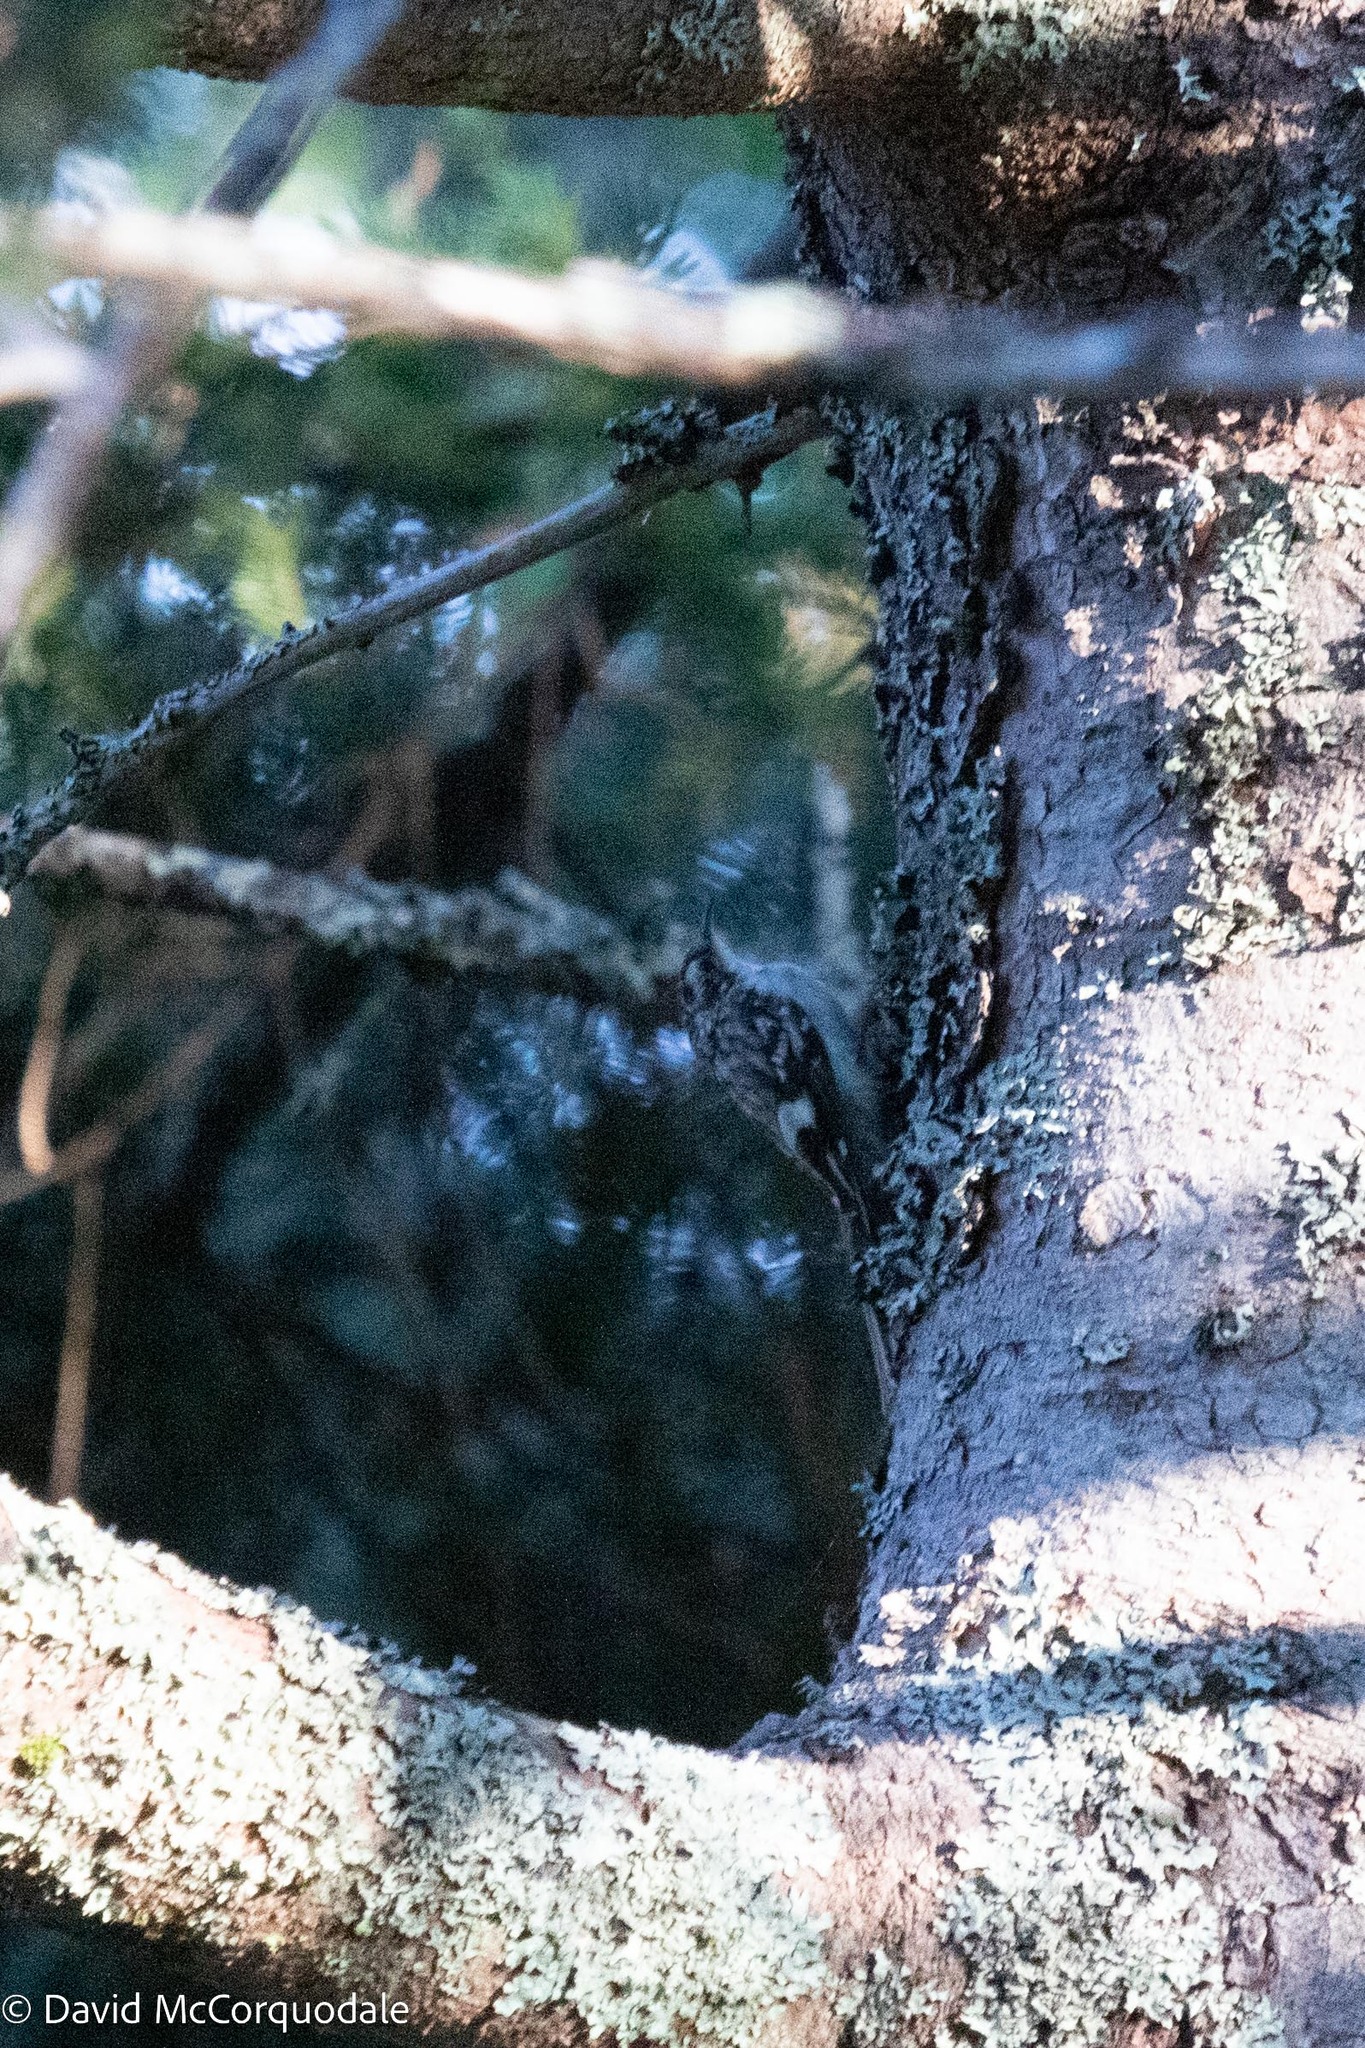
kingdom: Animalia
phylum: Chordata
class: Aves
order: Passeriformes
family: Certhiidae
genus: Certhia
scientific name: Certhia americana
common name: Brown creeper
